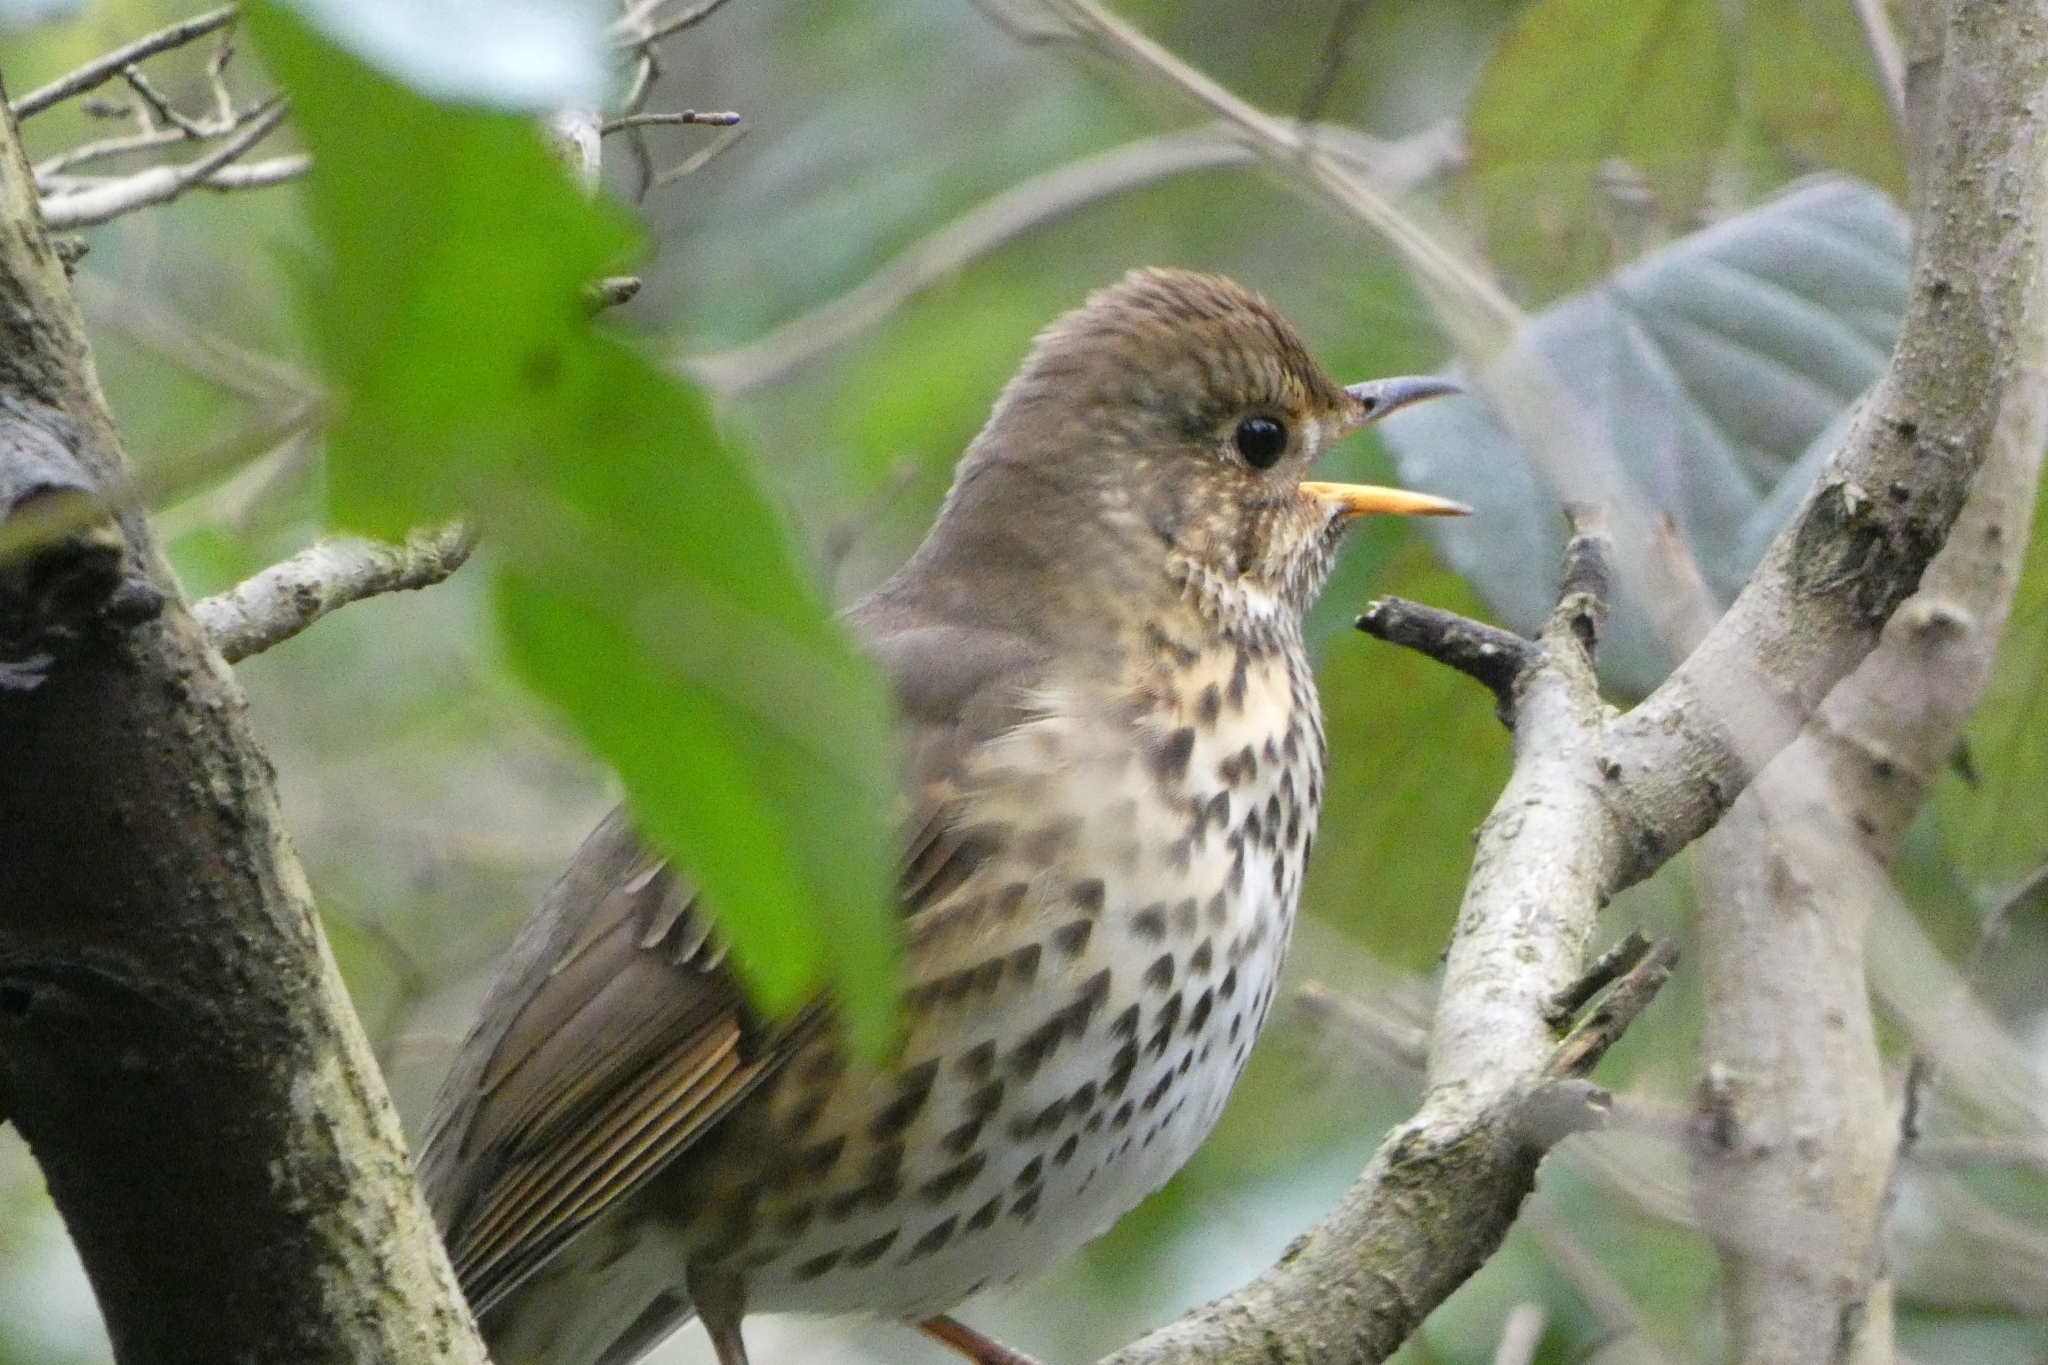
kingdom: Animalia
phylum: Chordata
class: Aves
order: Passeriformes
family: Turdidae
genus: Turdus
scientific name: Turdus philomelos
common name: Song thrush
